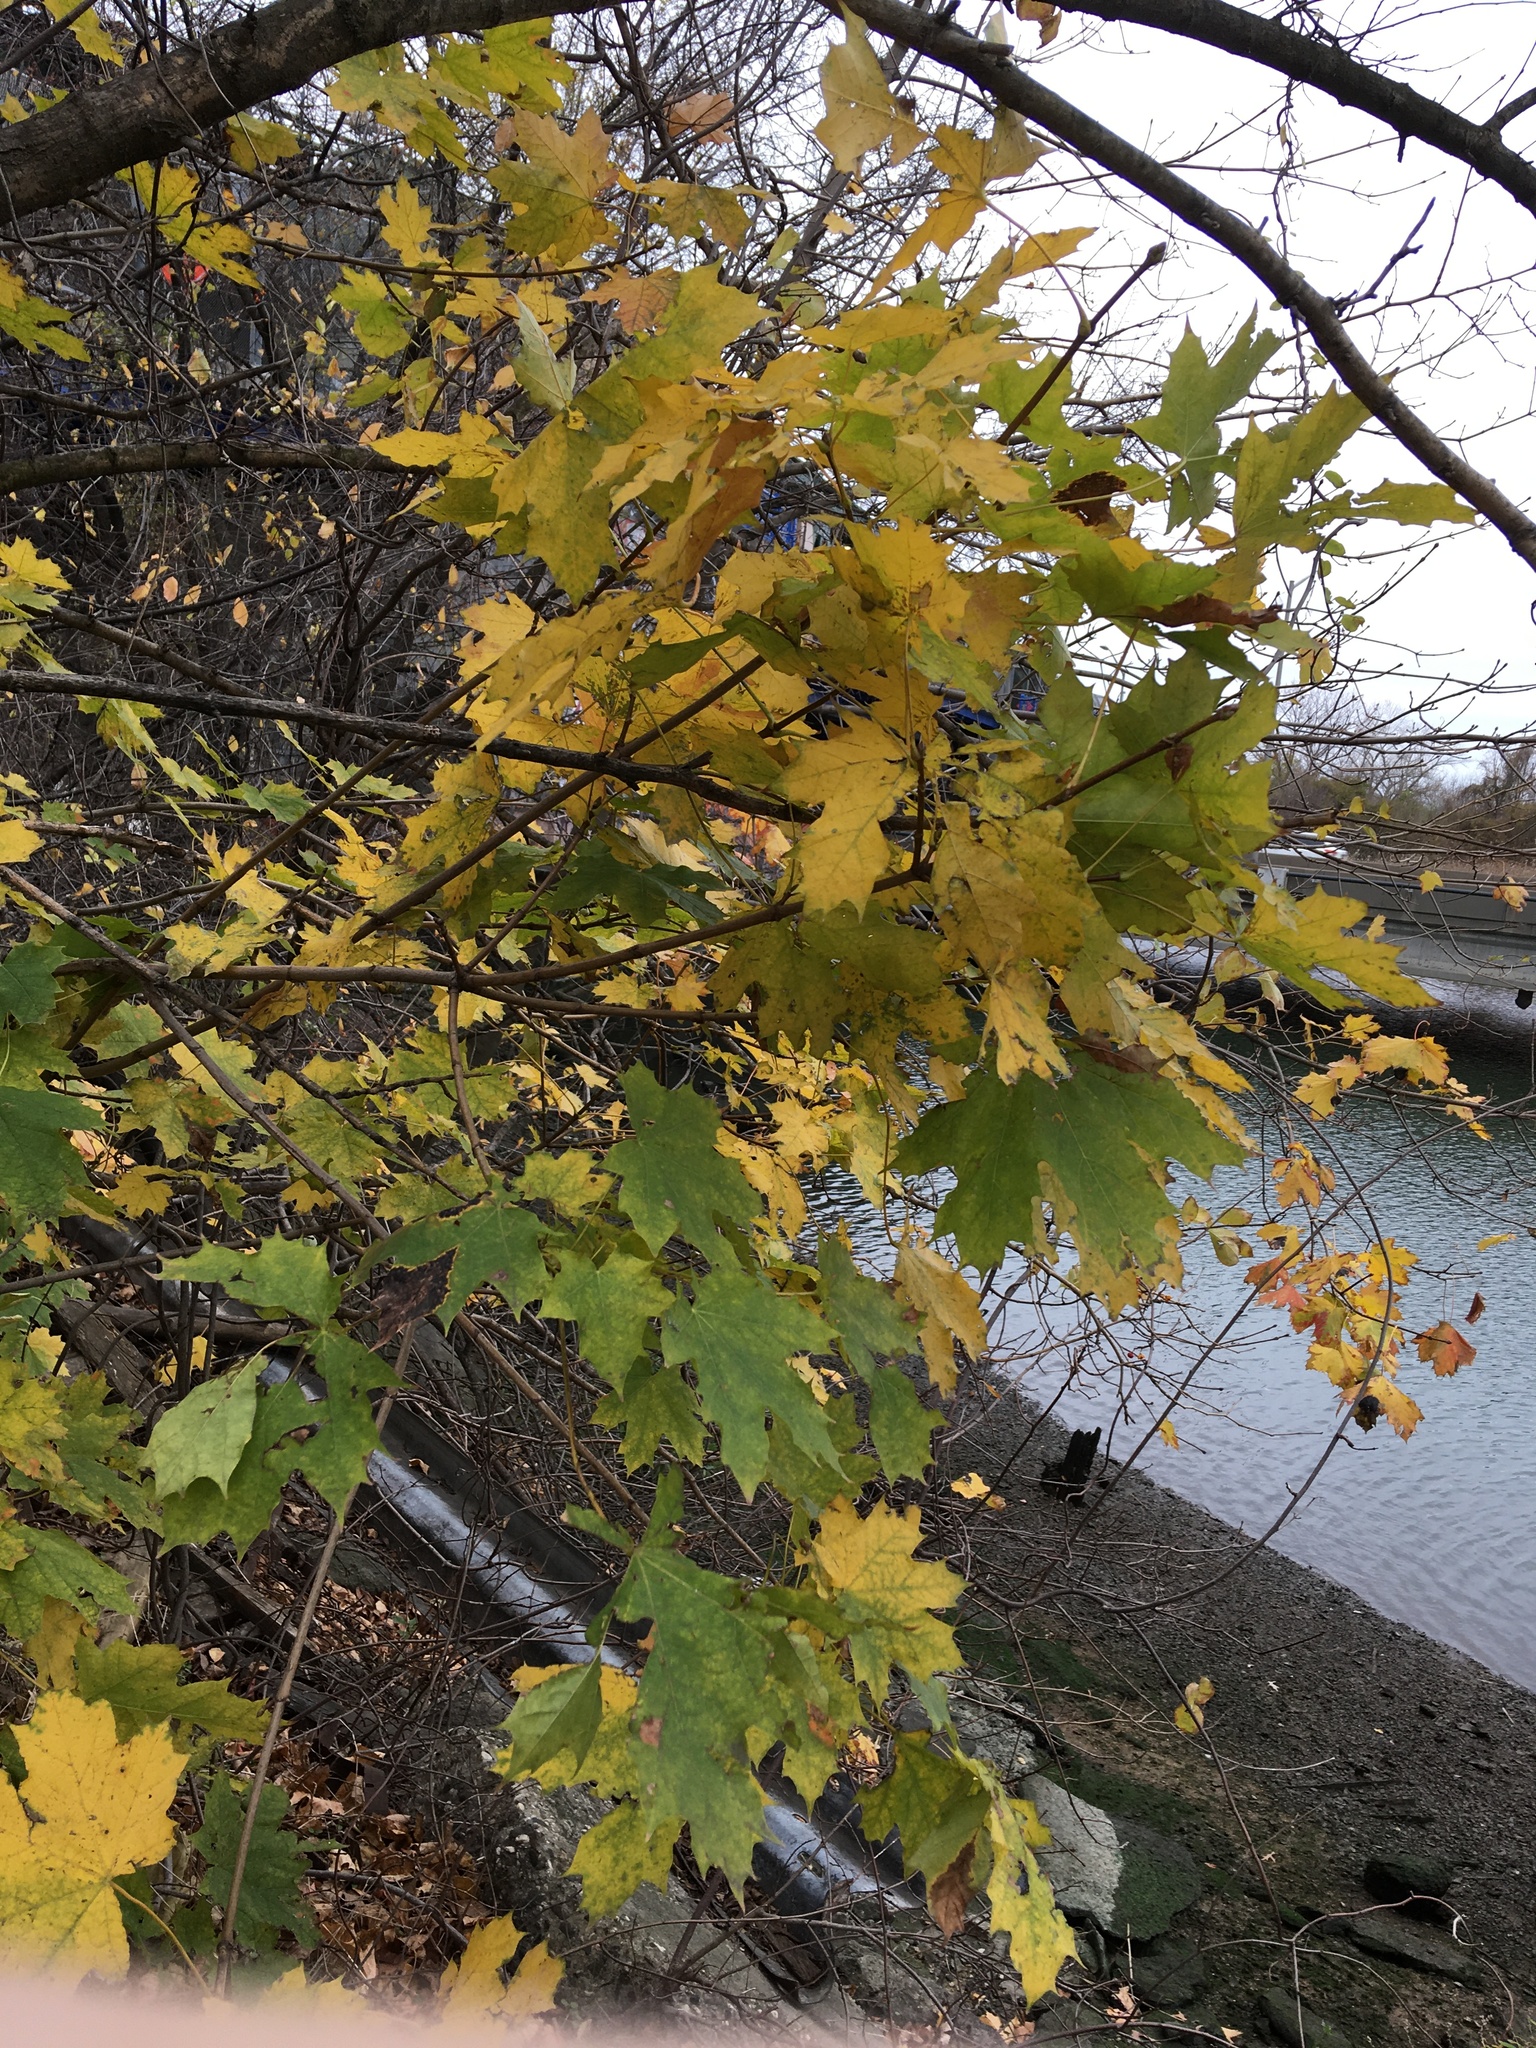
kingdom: Plantae
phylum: Tracheophyta
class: Magnoliopsida
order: Sapindales
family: Sapindaceae
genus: Acer
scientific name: Acer platanoides
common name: Norway maple
